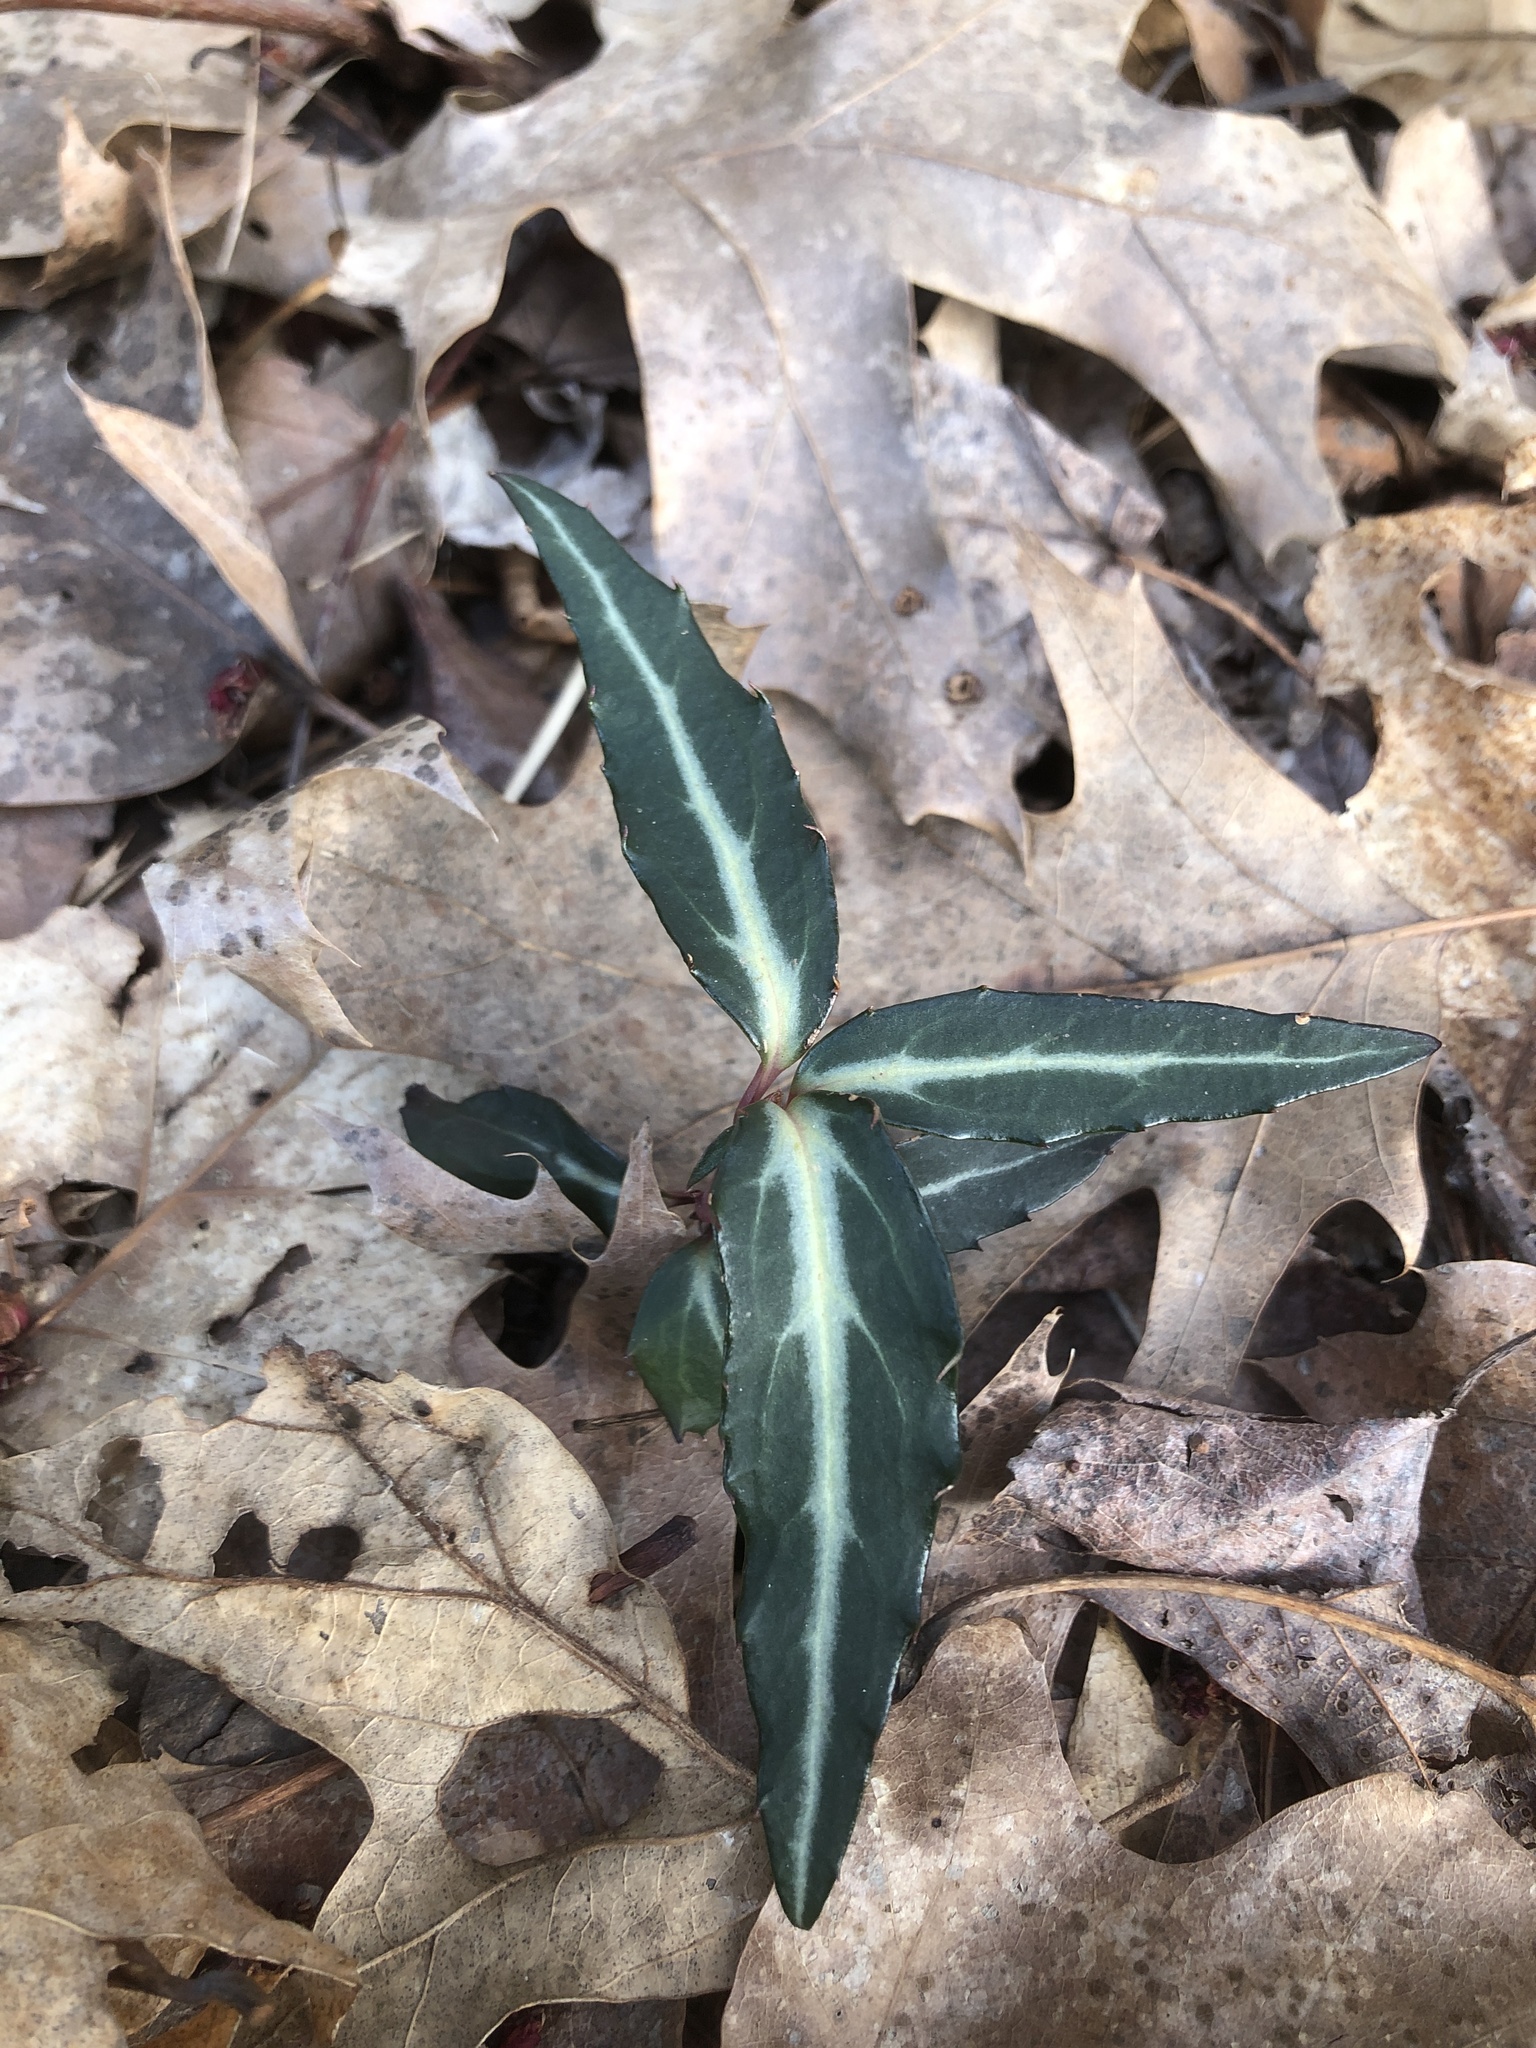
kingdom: Plantae
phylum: Tracheophyta
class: Magnoliopsida
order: Ericales
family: Ericaceae
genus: Chimaphila
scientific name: Chimaphila maculata
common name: Spotted pipsissewa
